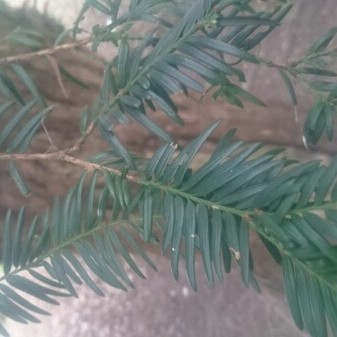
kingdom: Plantae
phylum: Tracheophyta
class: Pinopsida
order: Pinales
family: Taxaceae
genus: Taxus
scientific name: Taxus baccata
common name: Yew
